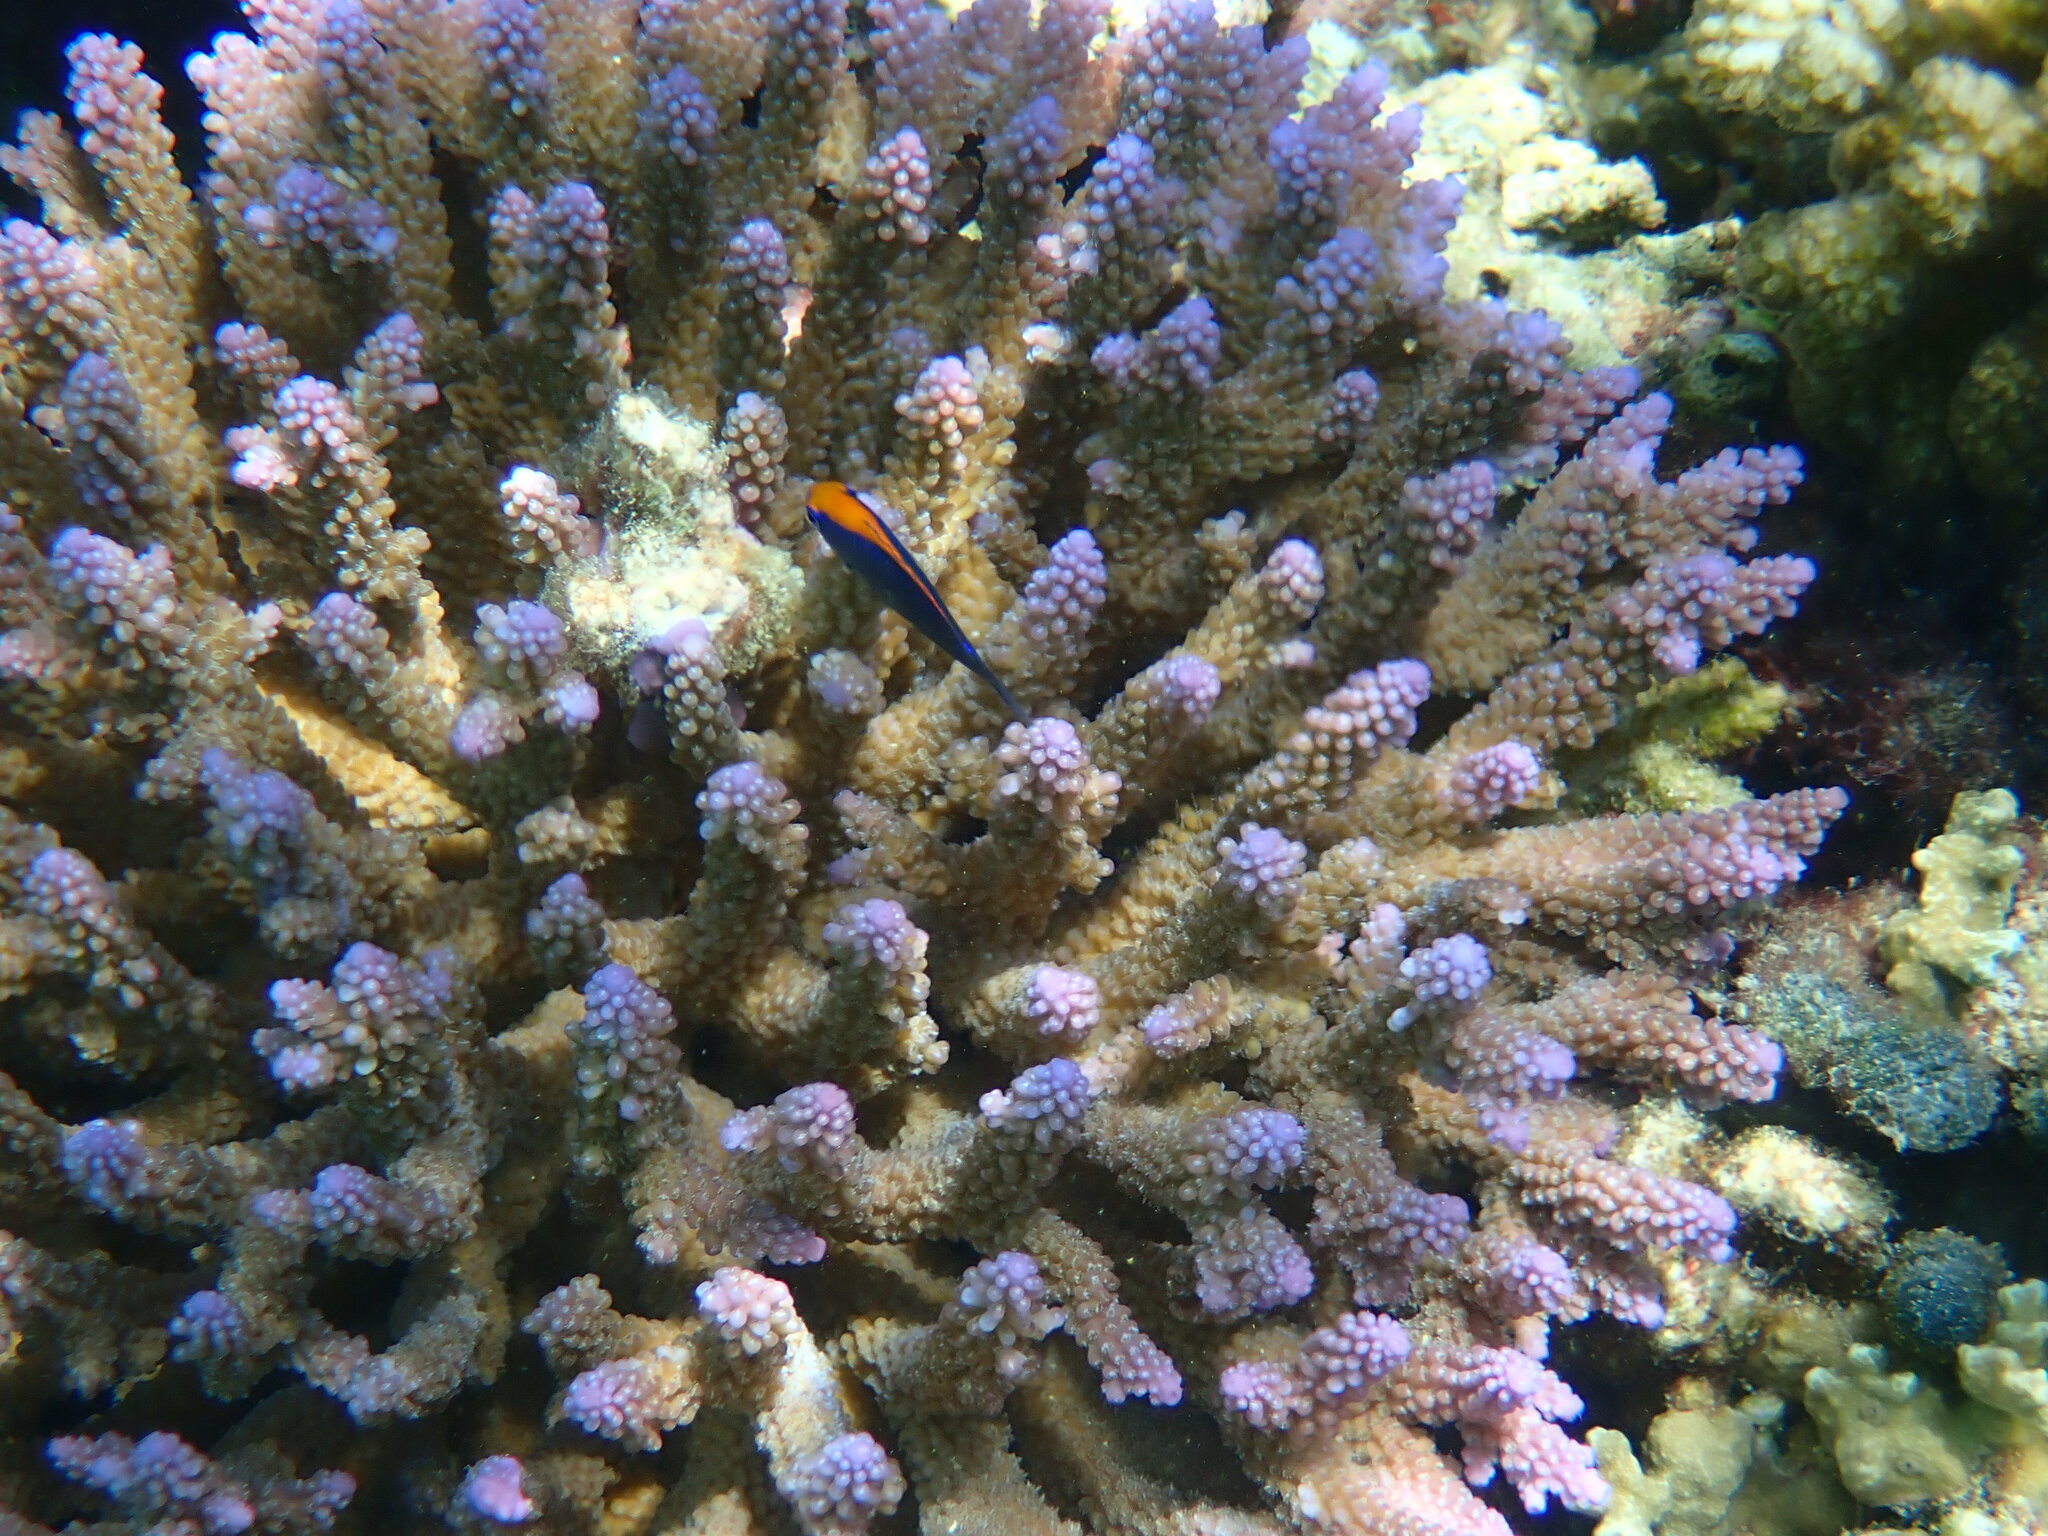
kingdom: Animalia
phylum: Chordata
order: Perciformes
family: Pomacentridae
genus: Pomacentrus
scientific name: Pomacentrus indicus
